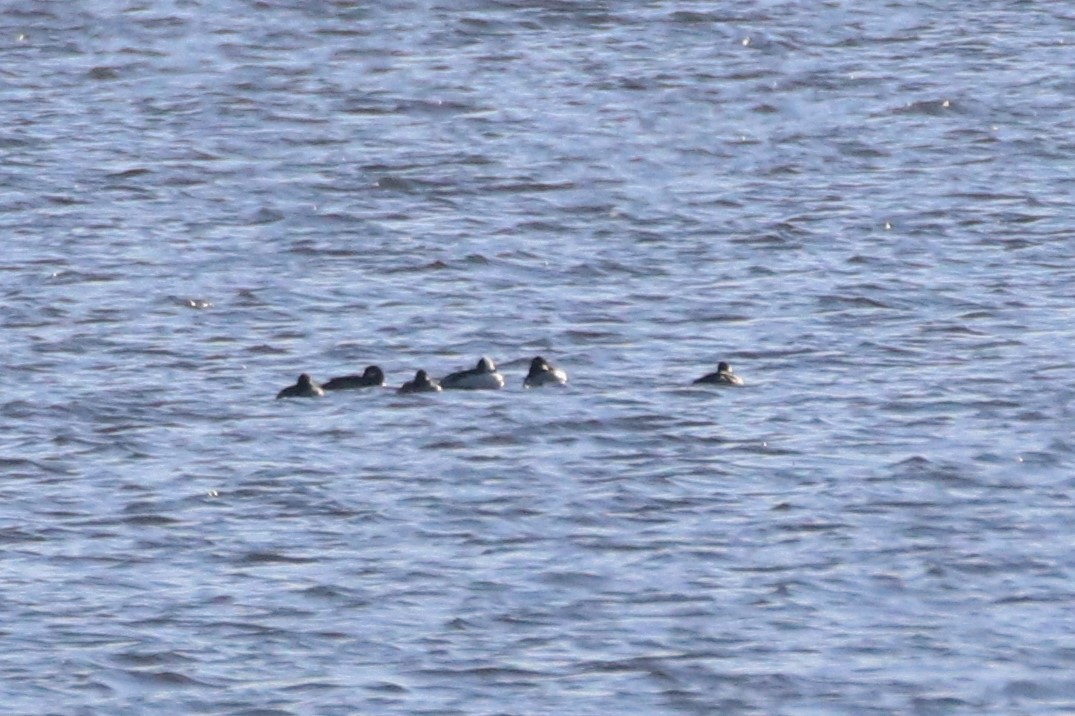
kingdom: Animalia
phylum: Chordata
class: Aves
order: Anseriformes
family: Anatidae
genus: Bucephala
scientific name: Bucephala albeola
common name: Bufflehead
